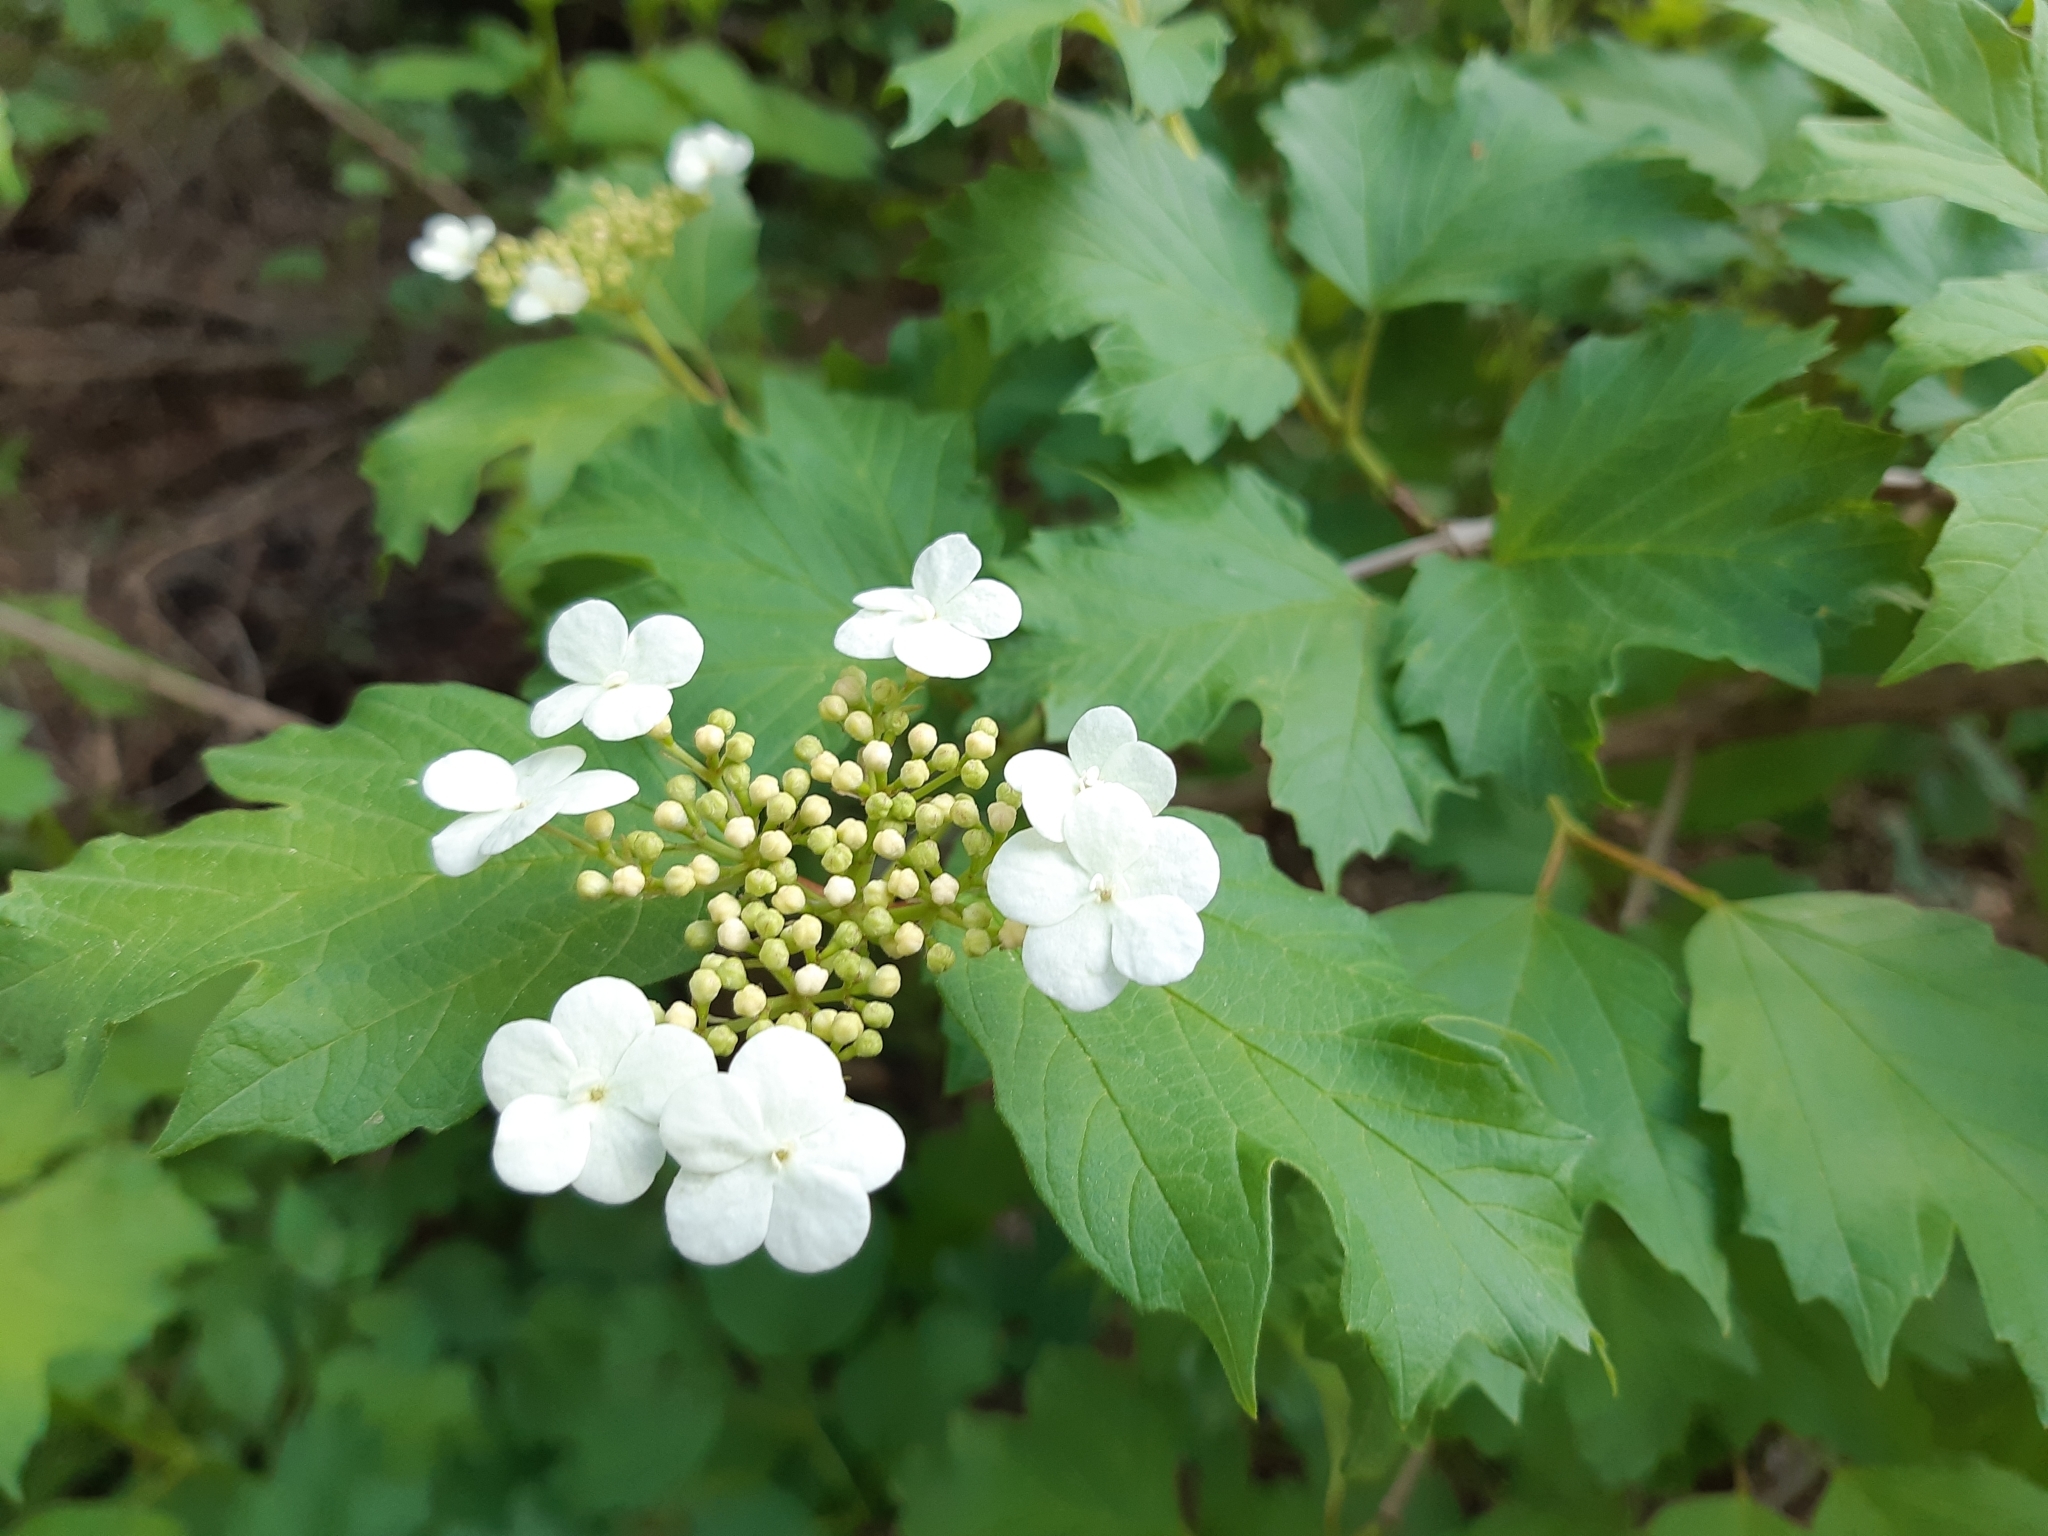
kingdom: Plantae
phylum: Tracheophyta
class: Magnoliopsida
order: Dipsacales
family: Viburnaceae
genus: Viburnum
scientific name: Viburnum opulus
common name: Guelder-rose
